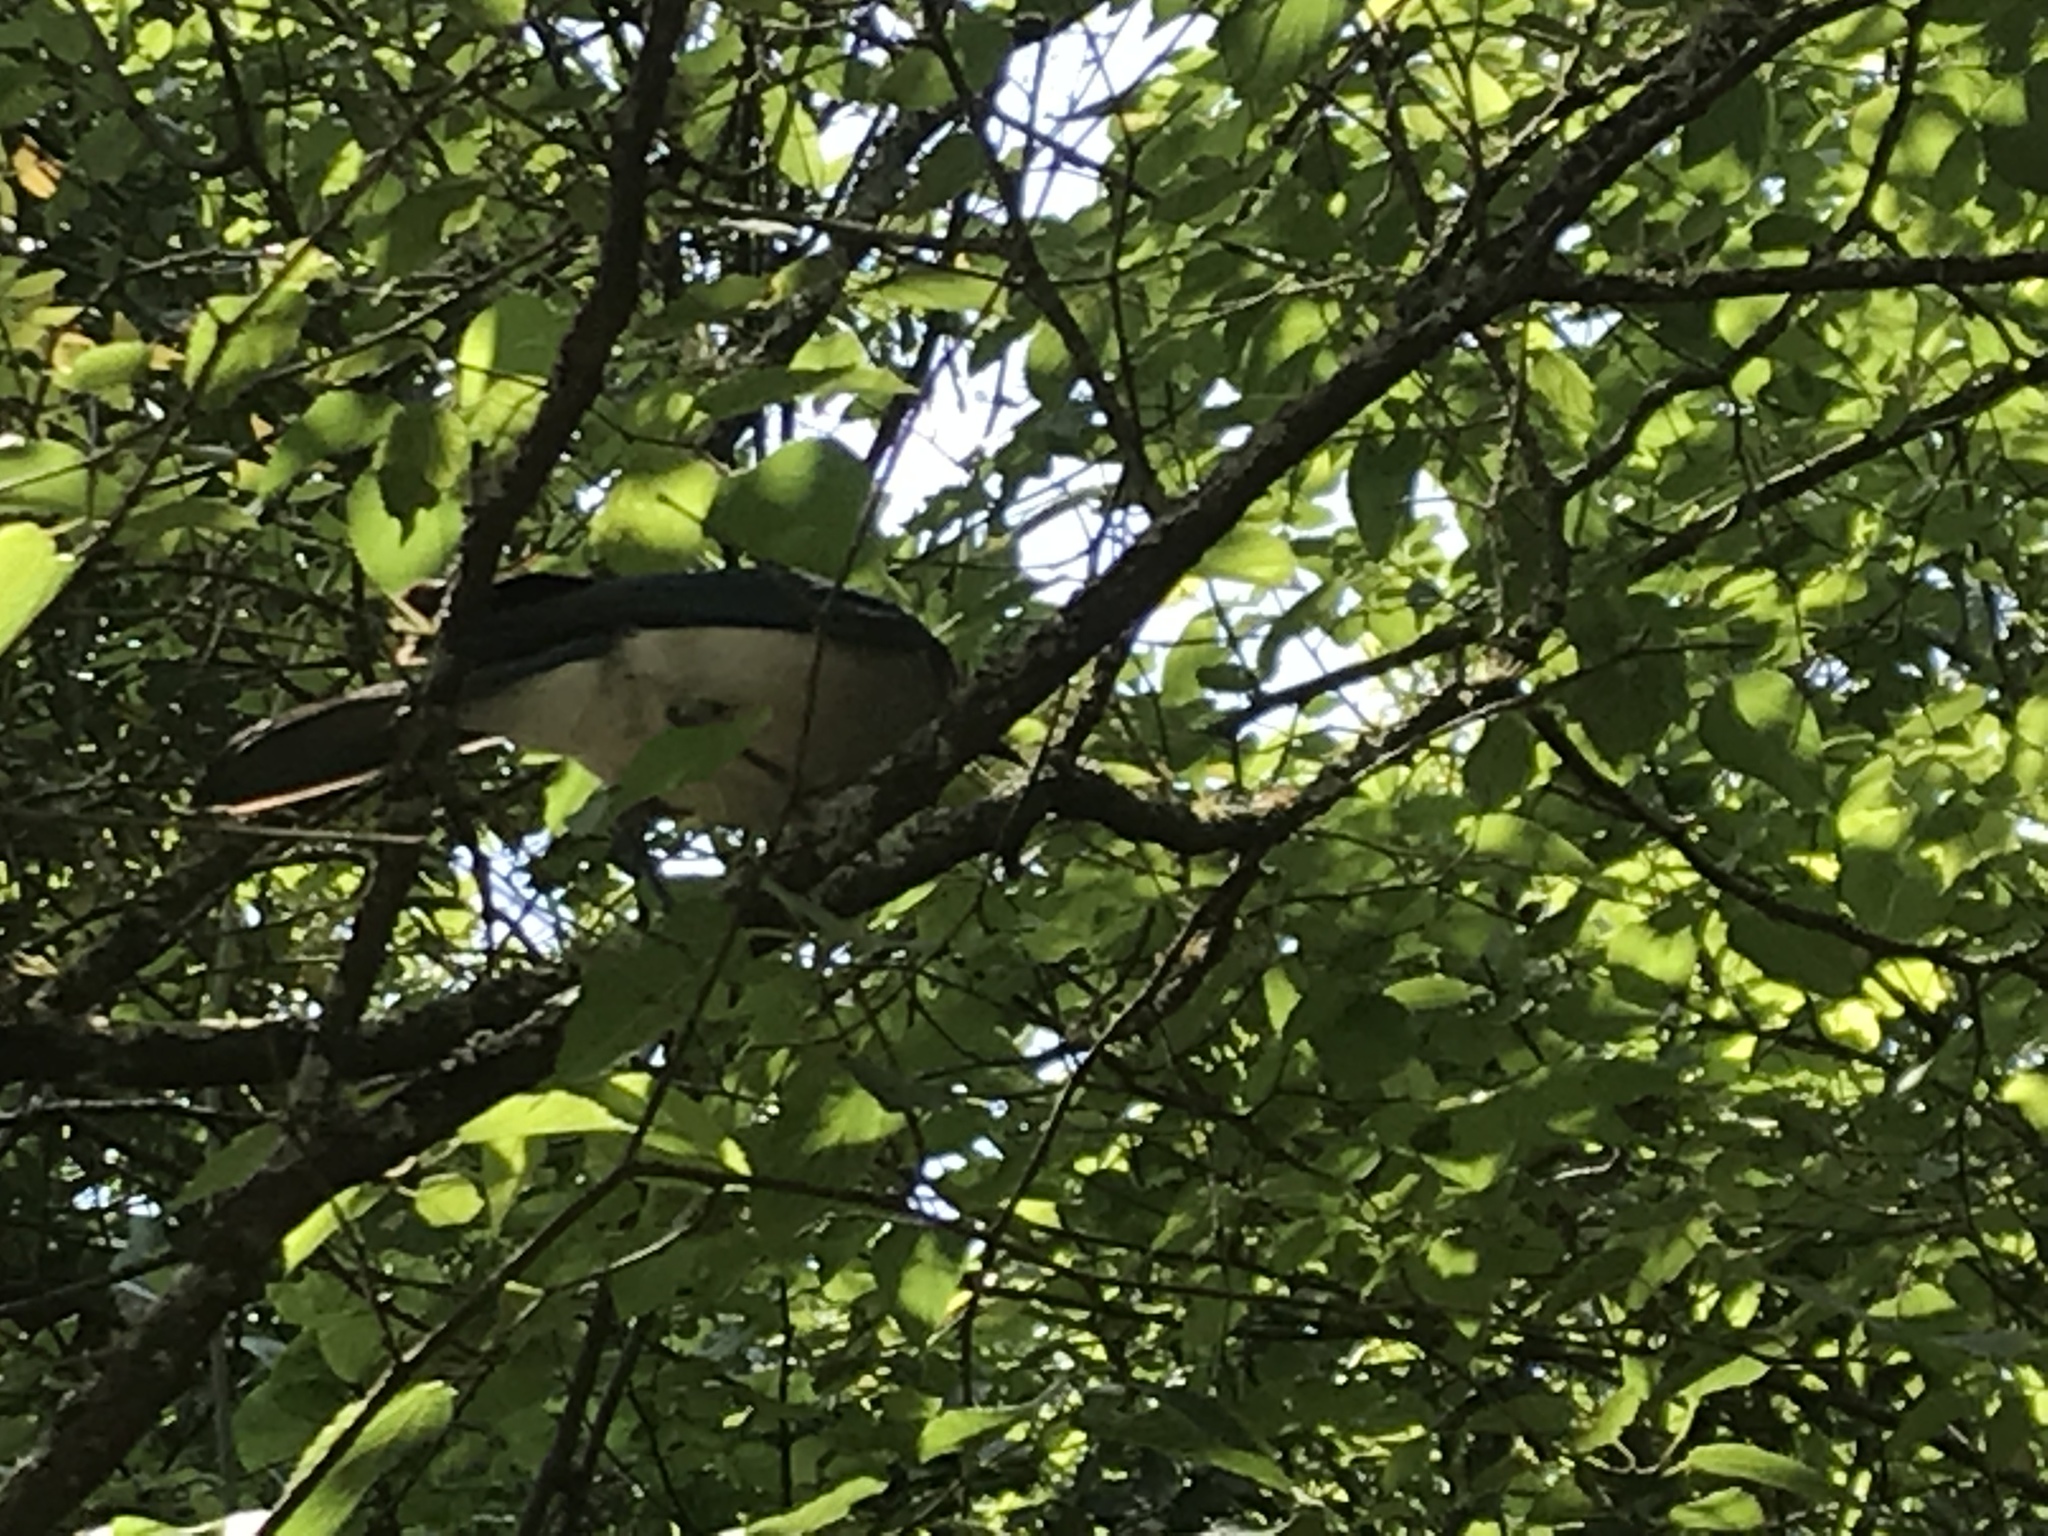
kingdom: Animalia
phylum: Chordata
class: Aves
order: Passeriformes
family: Corvidae
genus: Aphelocoma
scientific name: Aphelocoma wollweberi
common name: Mexican jay
